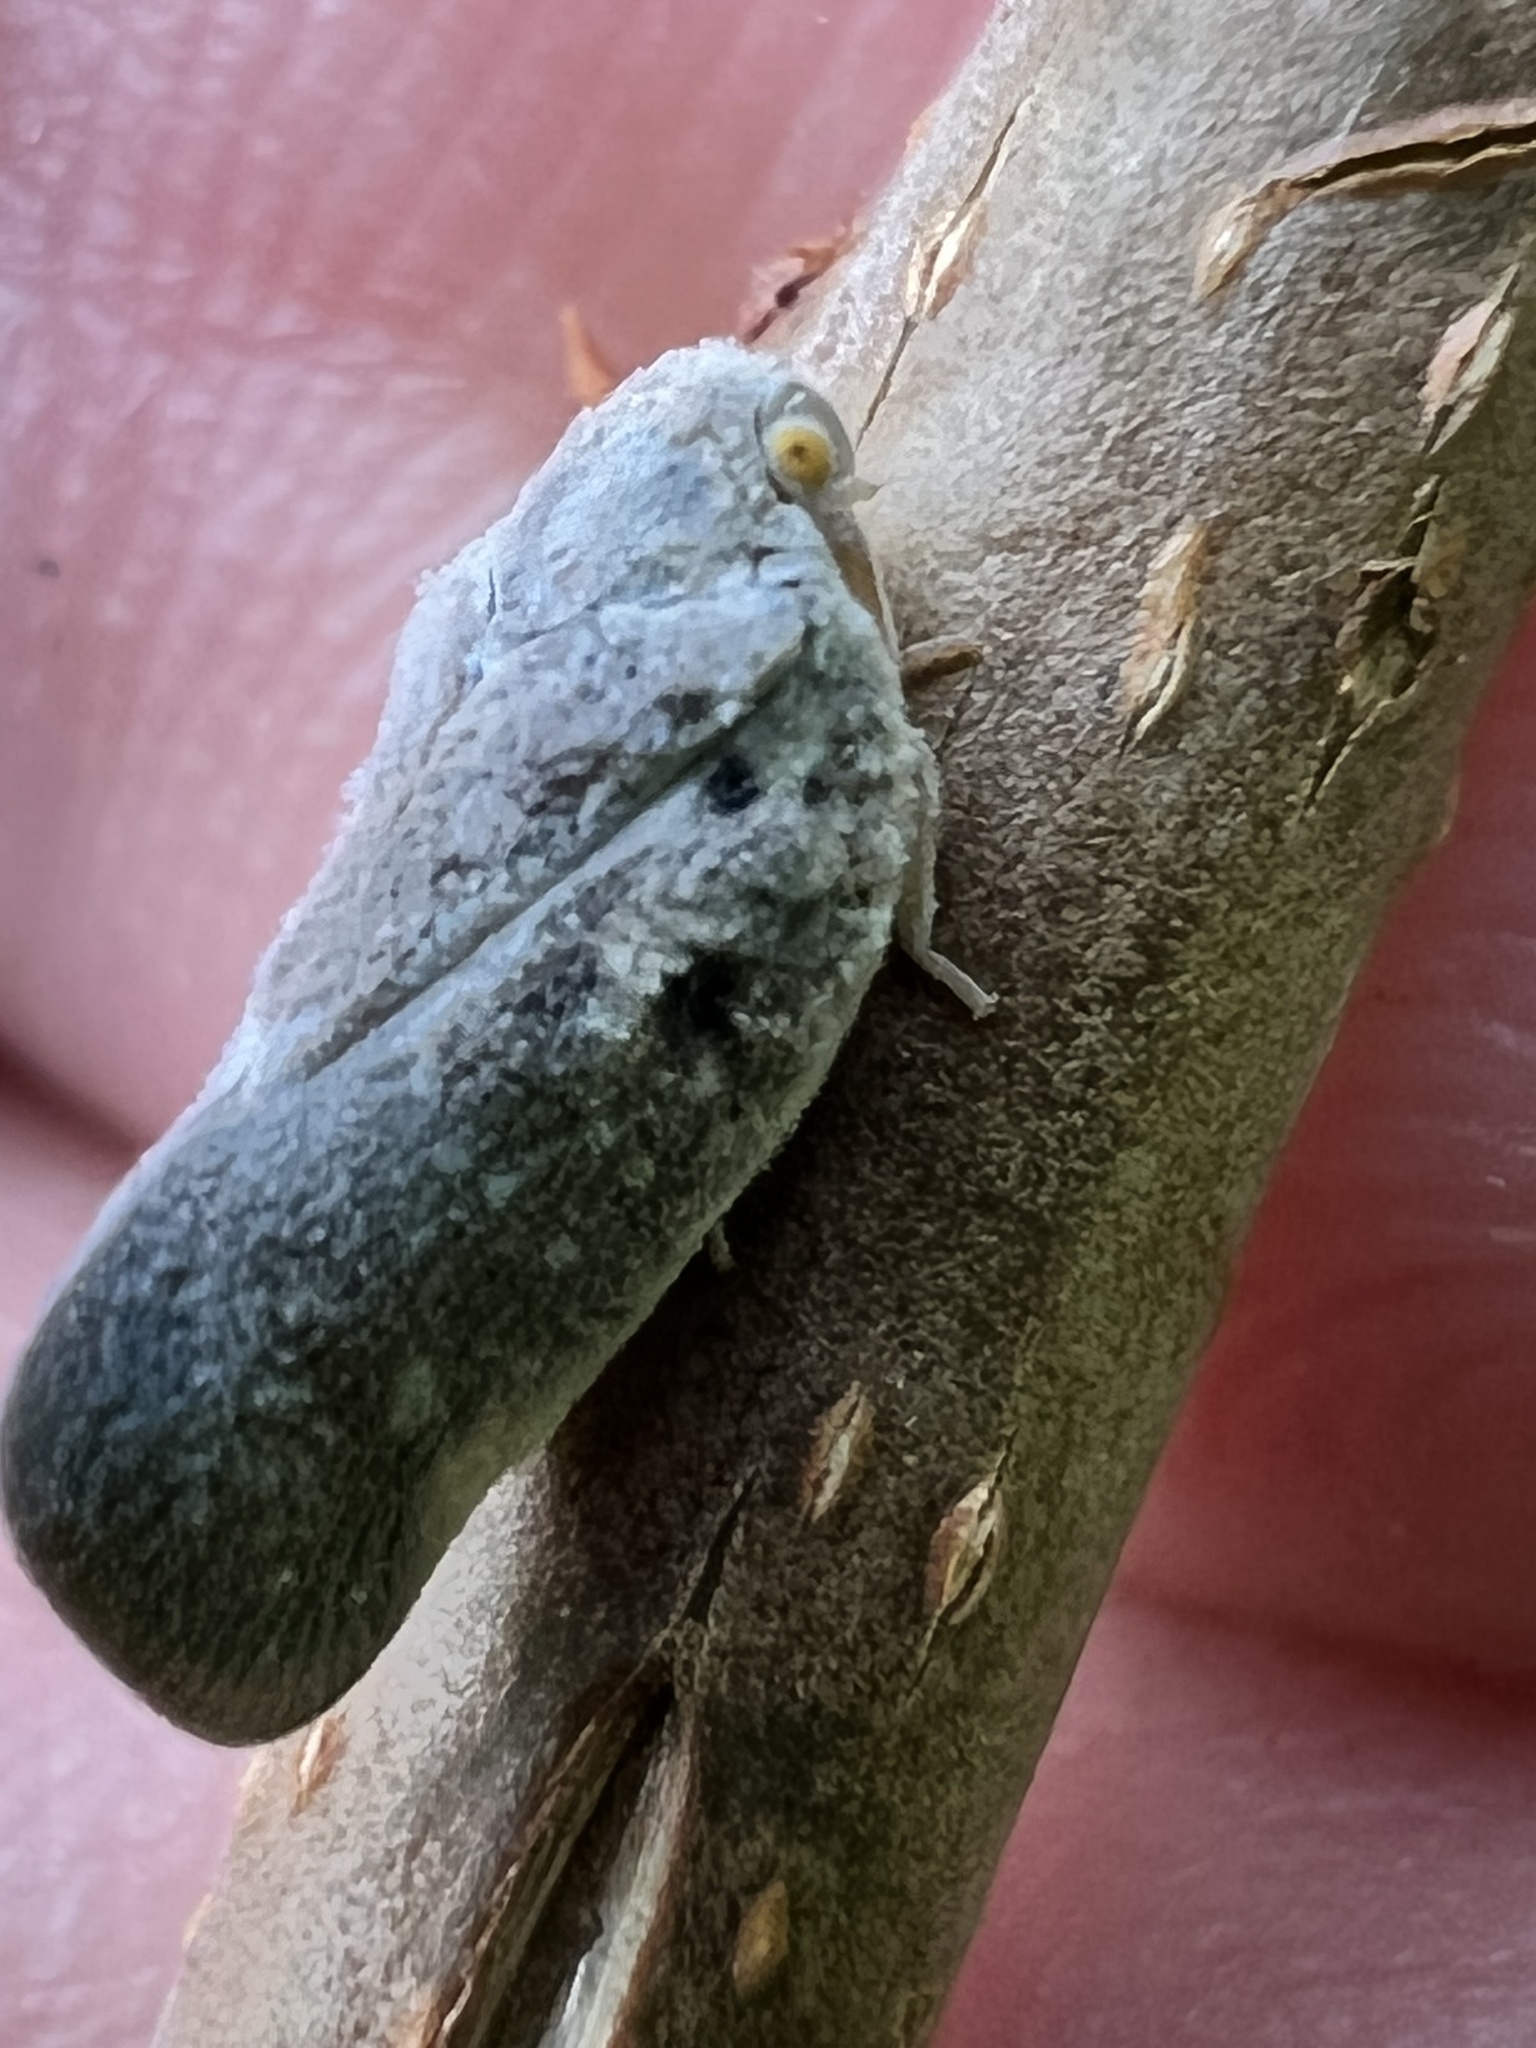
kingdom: Animalia
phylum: Arthropoda
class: Insecta
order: Hemiptera
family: Flatidae
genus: Metcalfa
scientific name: Metcalfa pruinosa
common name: Citrus flatid planthopper
